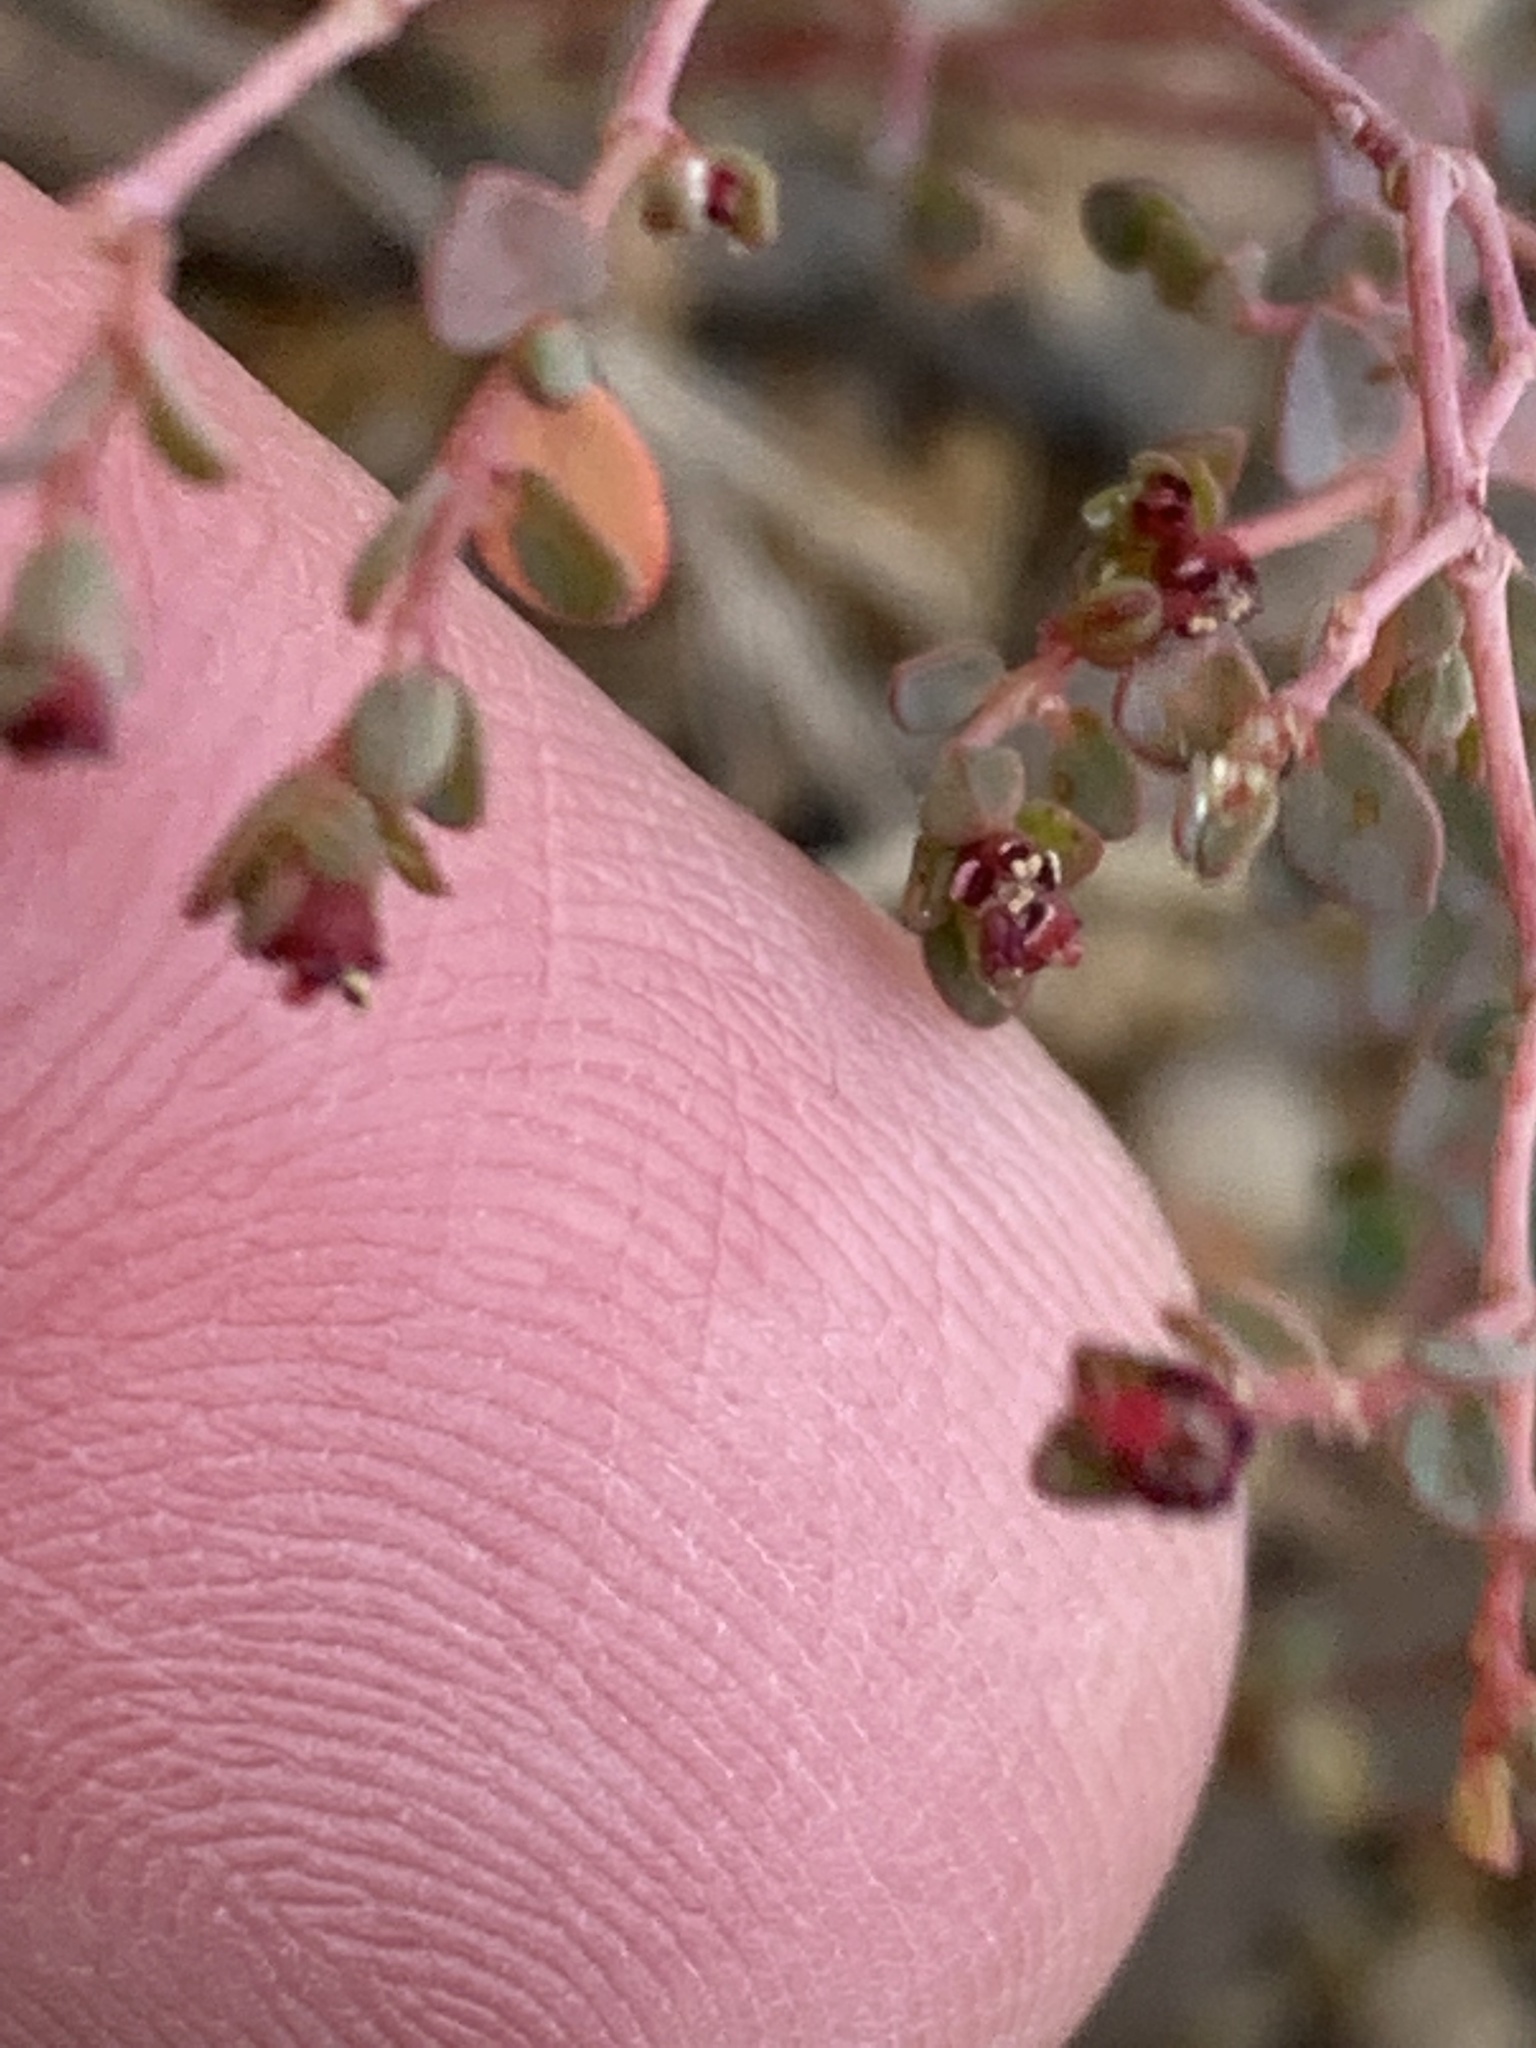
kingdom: Plantae
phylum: Tracheophyta
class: Magnoliopsida
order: Malpighiales
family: Euphorbiaceae
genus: Euphorbia
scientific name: Euphorbia polycarpa
